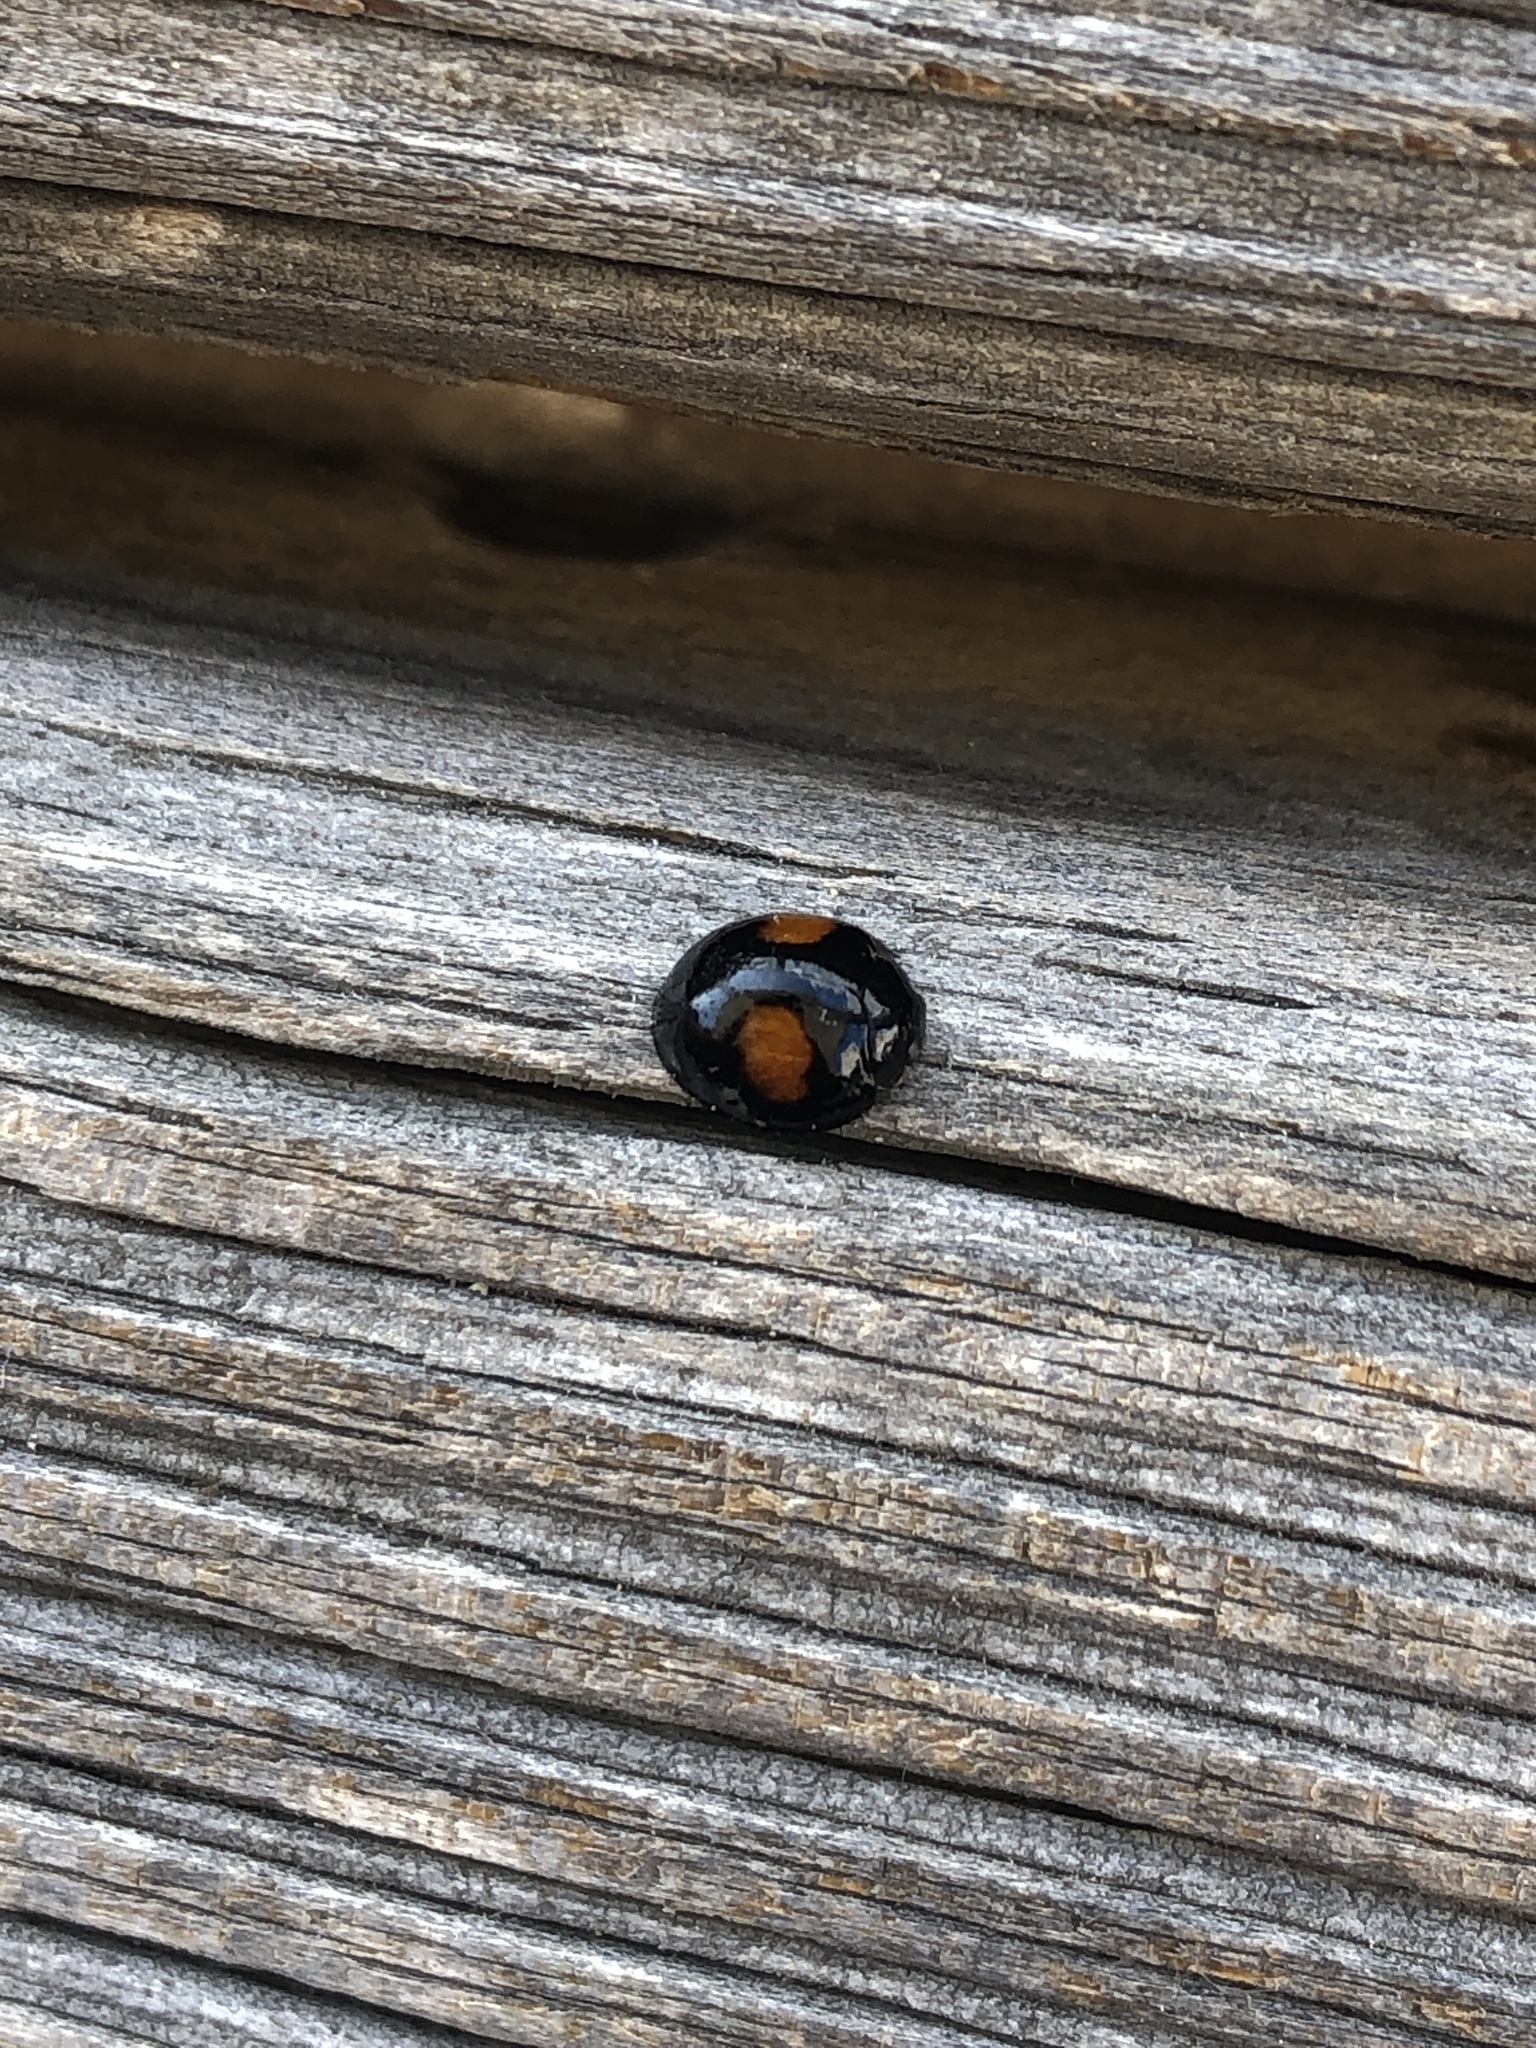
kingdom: Animalia
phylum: Arthropoda
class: Insecta
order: Coleoptera
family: Coccinellidae
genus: Chilocorus
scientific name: Chilocorus cacti
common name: Cactus lady beetle
